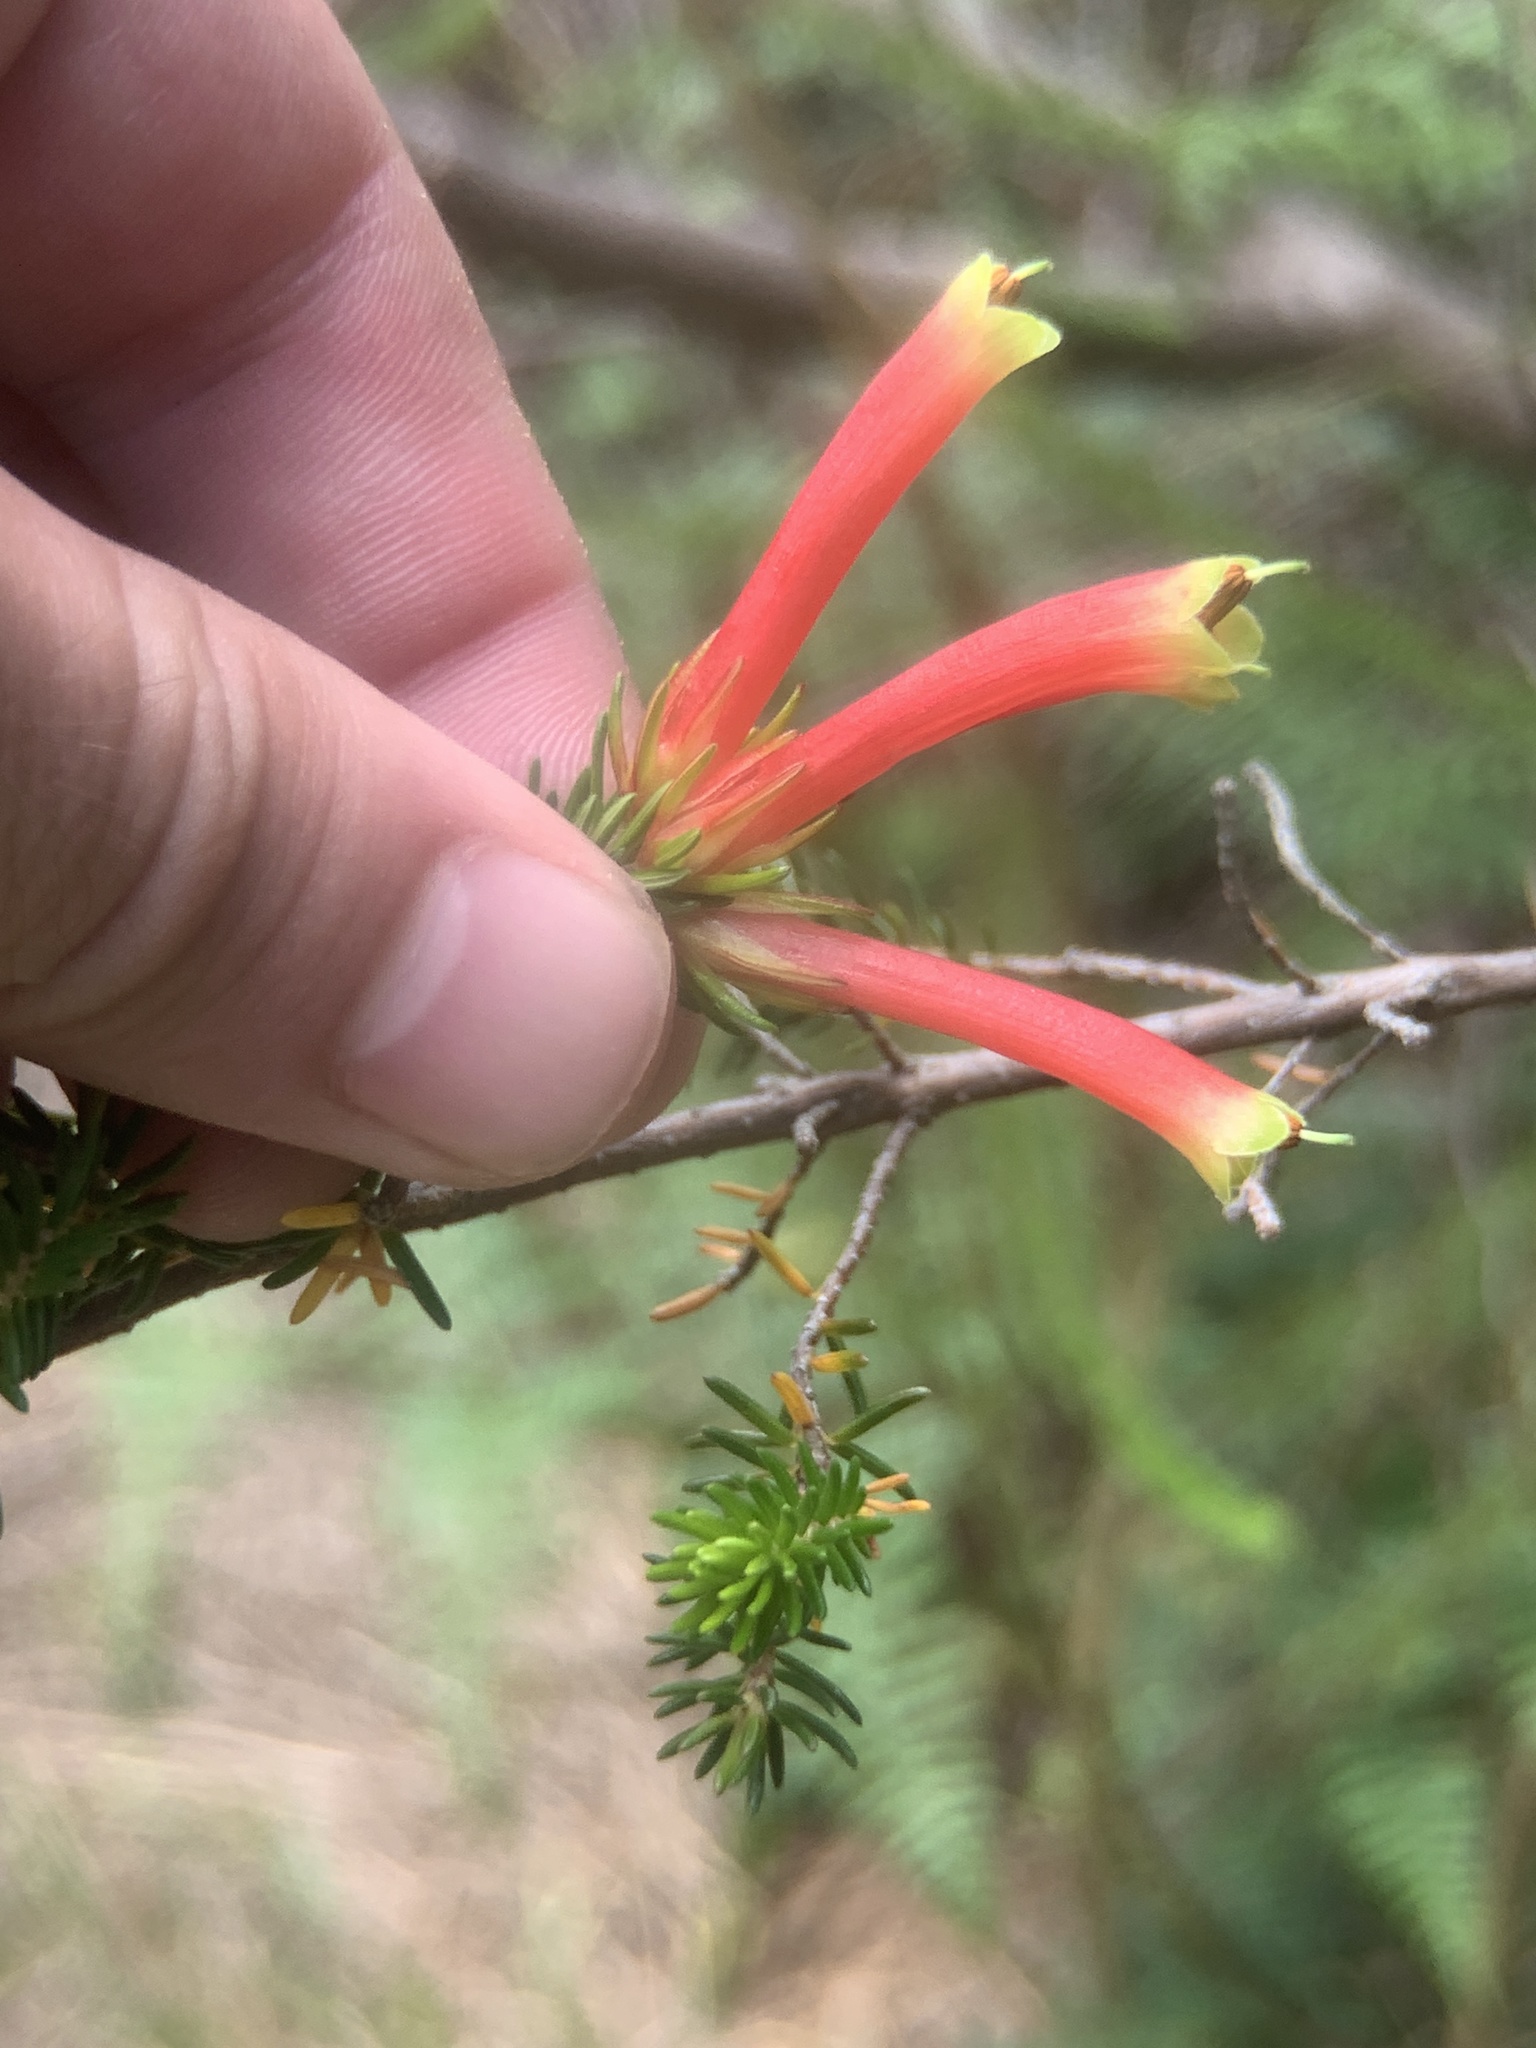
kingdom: Plantae
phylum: Tracheophyta
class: Magnoliopsida
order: Ericales
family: Ericaceae
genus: Erica
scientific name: Erica discolor
